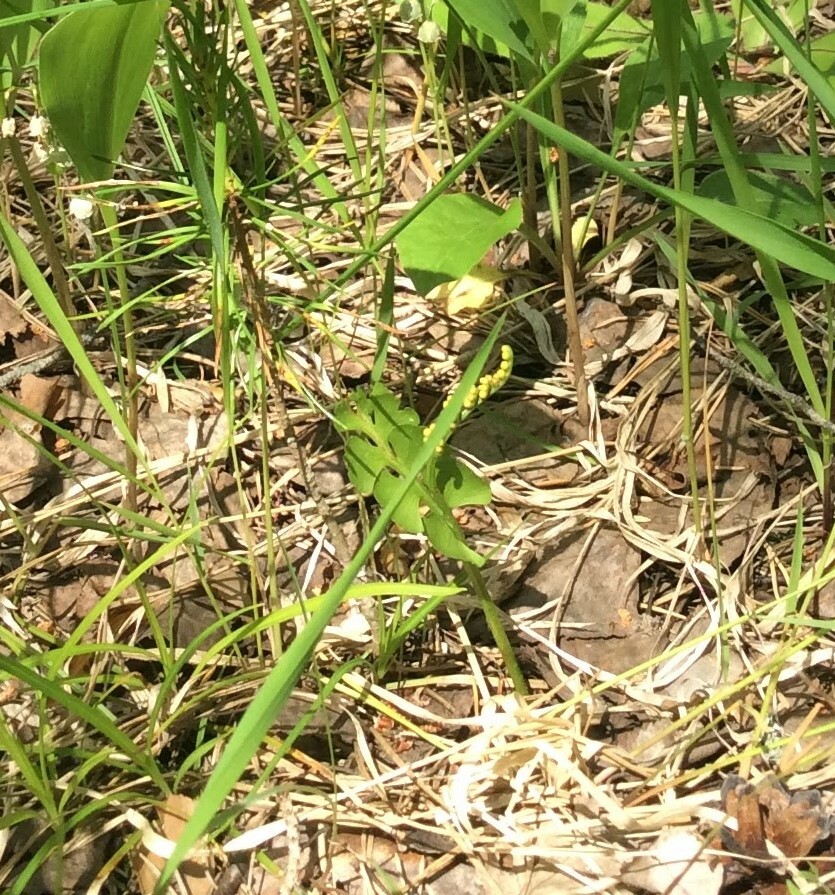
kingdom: Plantae
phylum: Tracheophyta
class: Polypodiopsida
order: Ophioglossales
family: Ophioglossaceae
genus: Botrychium
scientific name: Botrychium lunaria
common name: Moonwort
